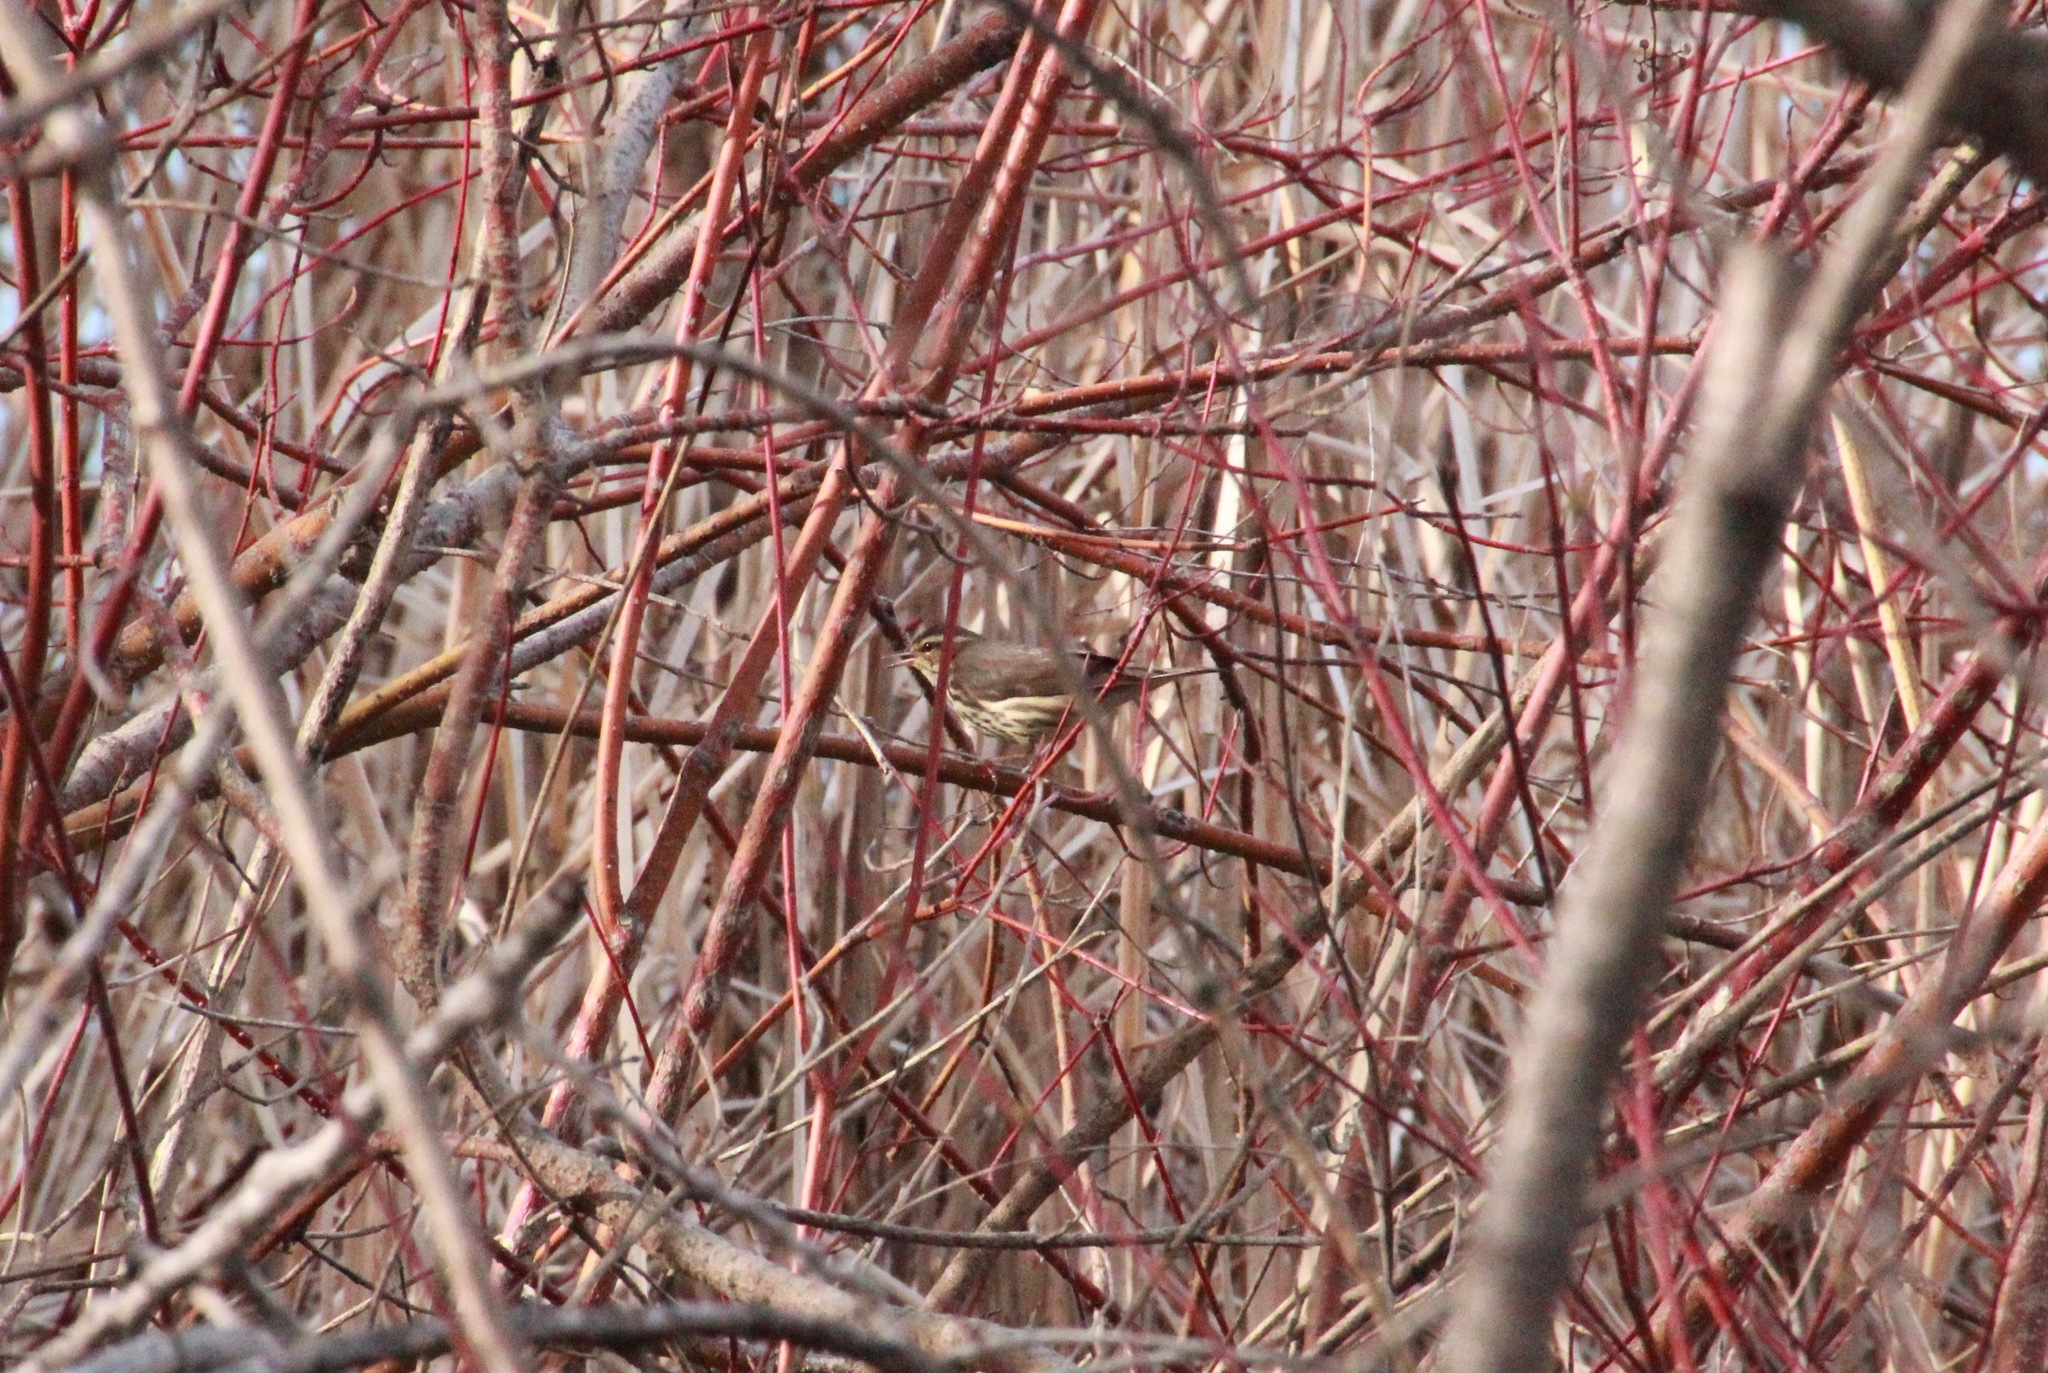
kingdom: Animalia
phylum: Chordata
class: Aves
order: Passeriformes
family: Parulidae
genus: Parkesia
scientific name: Parkesia noveboracensis
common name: Northern waterthrush
